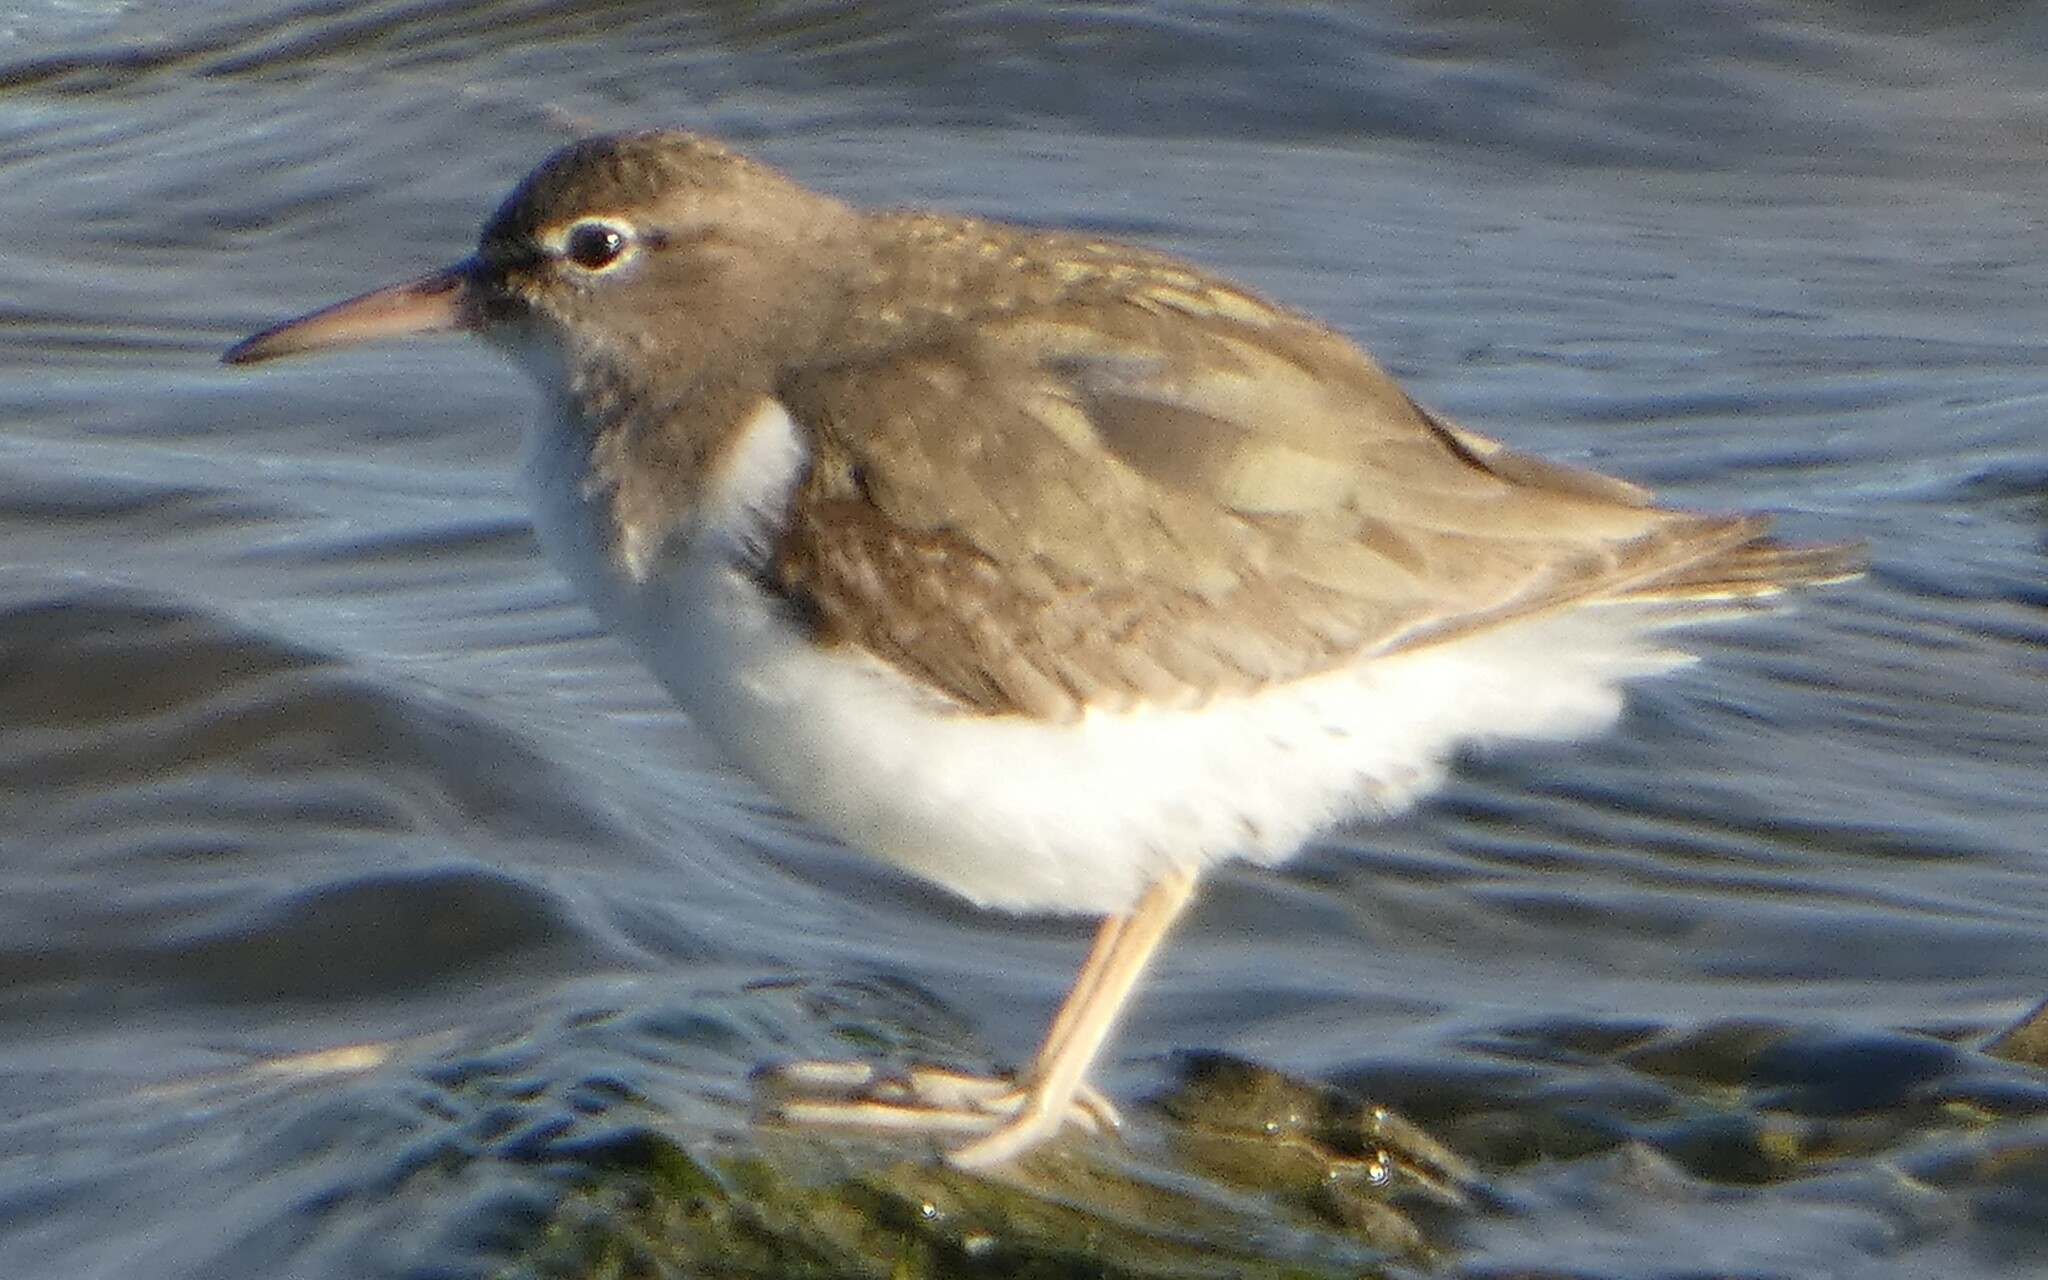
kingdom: Animalia
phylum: Chordata
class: Aves
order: Charadriiformes
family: Scolopacidae
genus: Actitis
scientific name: Actitis macularius
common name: Spotted sandpiper
